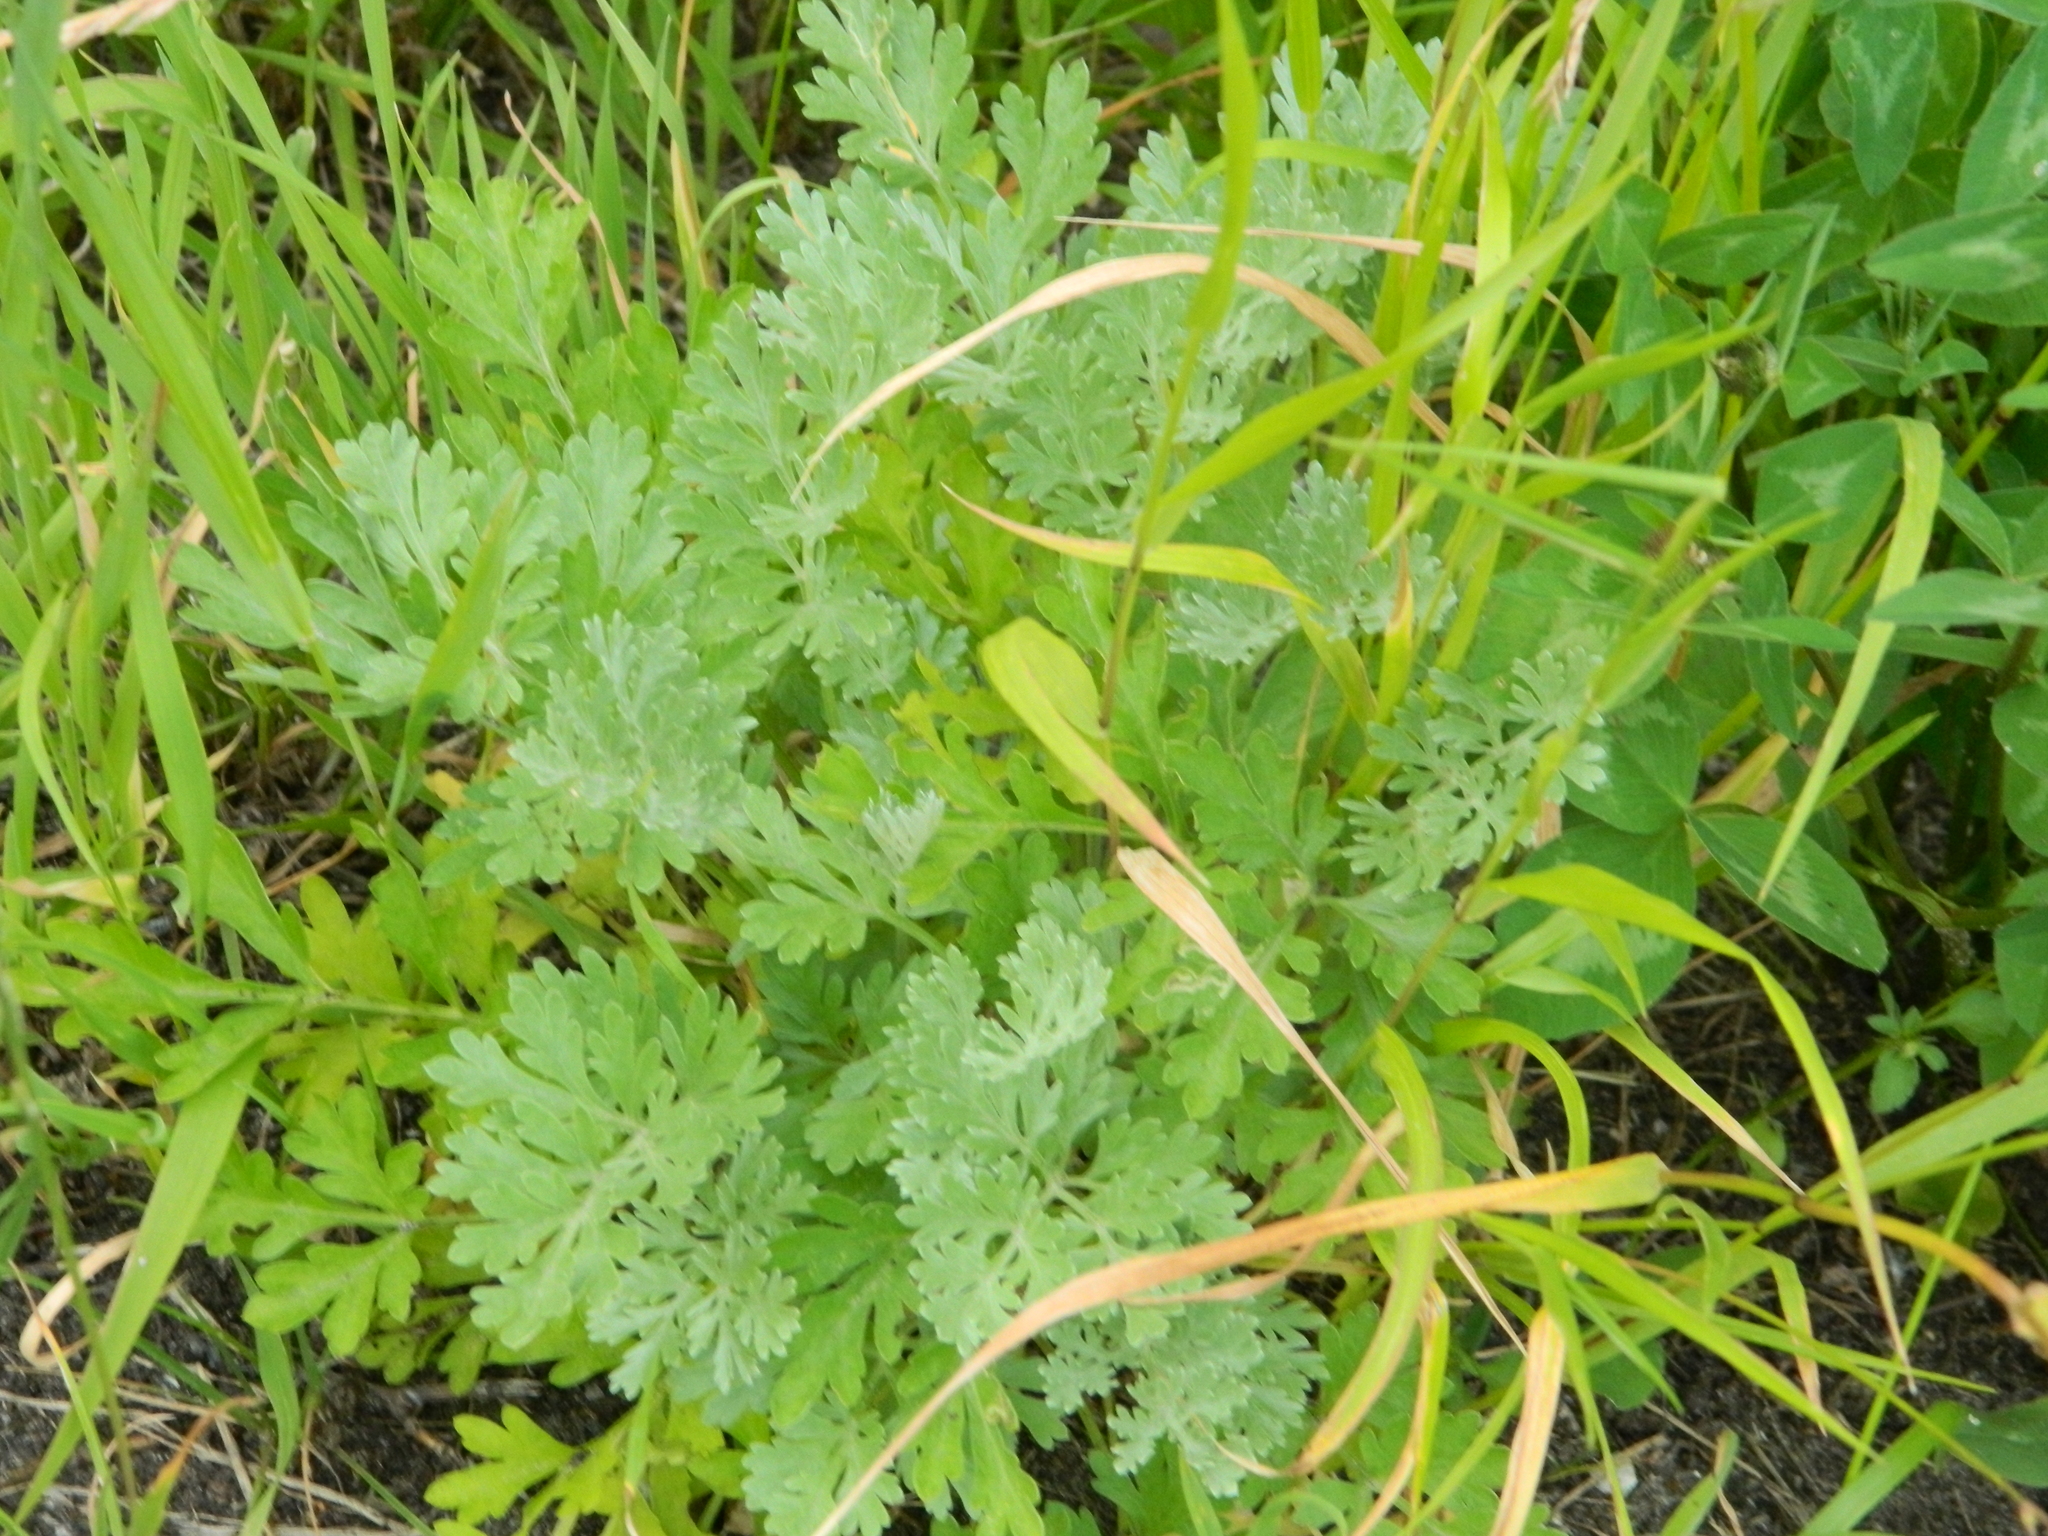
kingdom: Plantae
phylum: Tracheophyta
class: Magnoliopsida
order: Asterales
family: Asteraceae
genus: Artemisia
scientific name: Artemisia absinthium
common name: Wormwood
